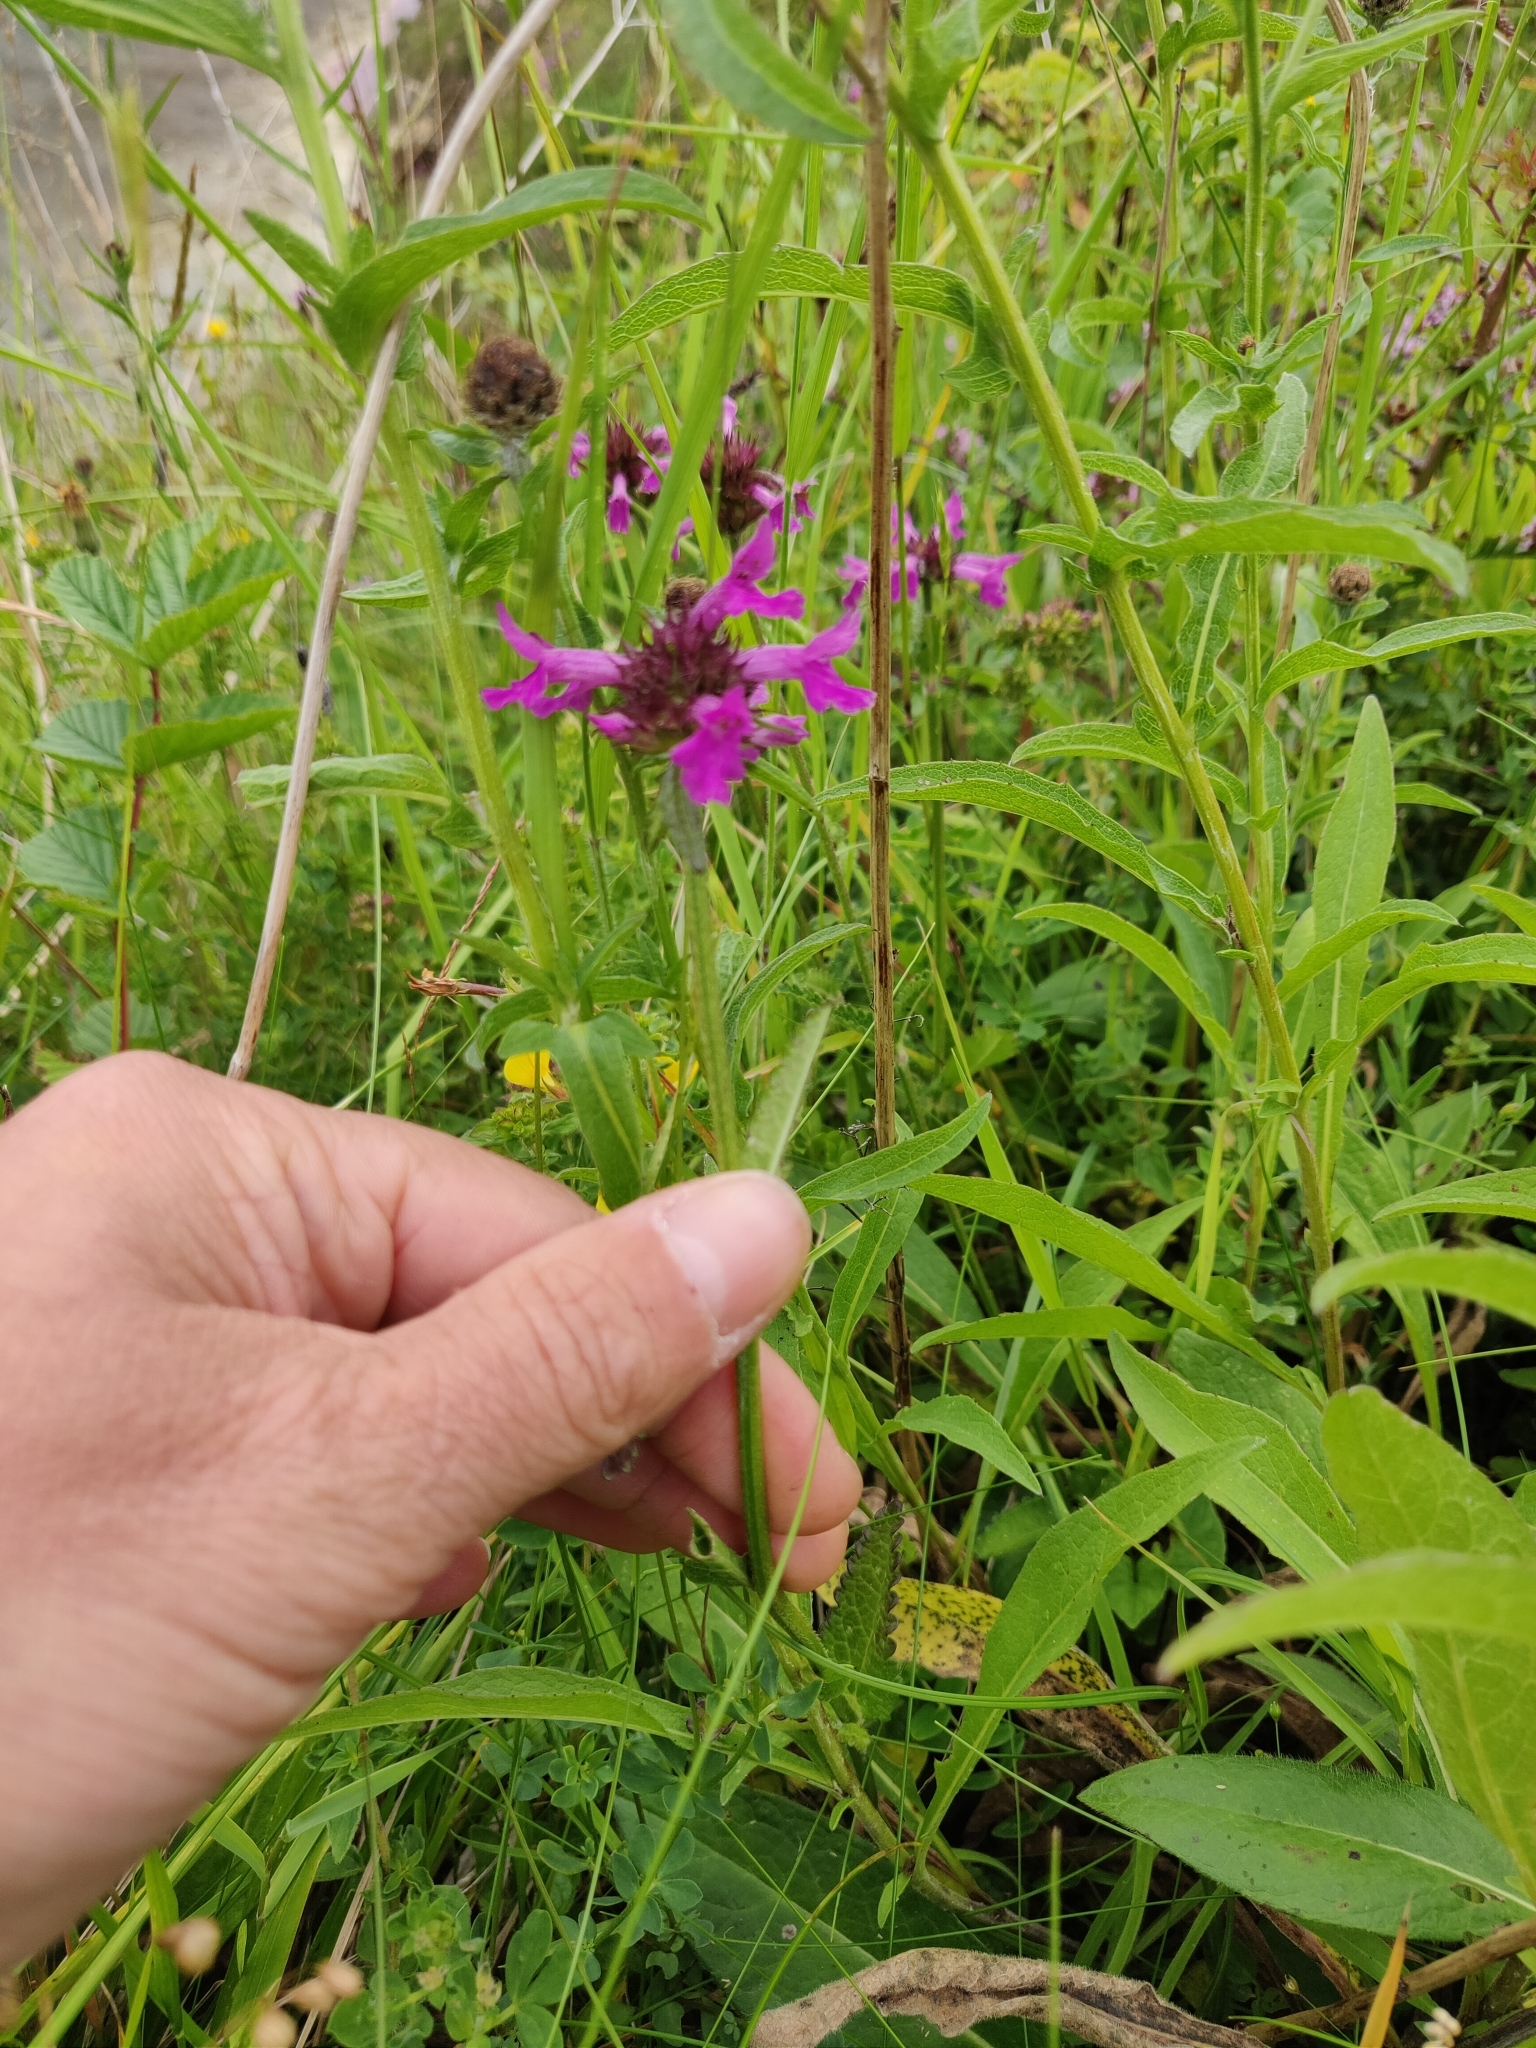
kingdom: Plantae
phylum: Tracheophyta
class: Magnoliopsida
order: Lamiales
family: Lamiaceae
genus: Betonica
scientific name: Betonica officinalis
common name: Bishop's-wort
